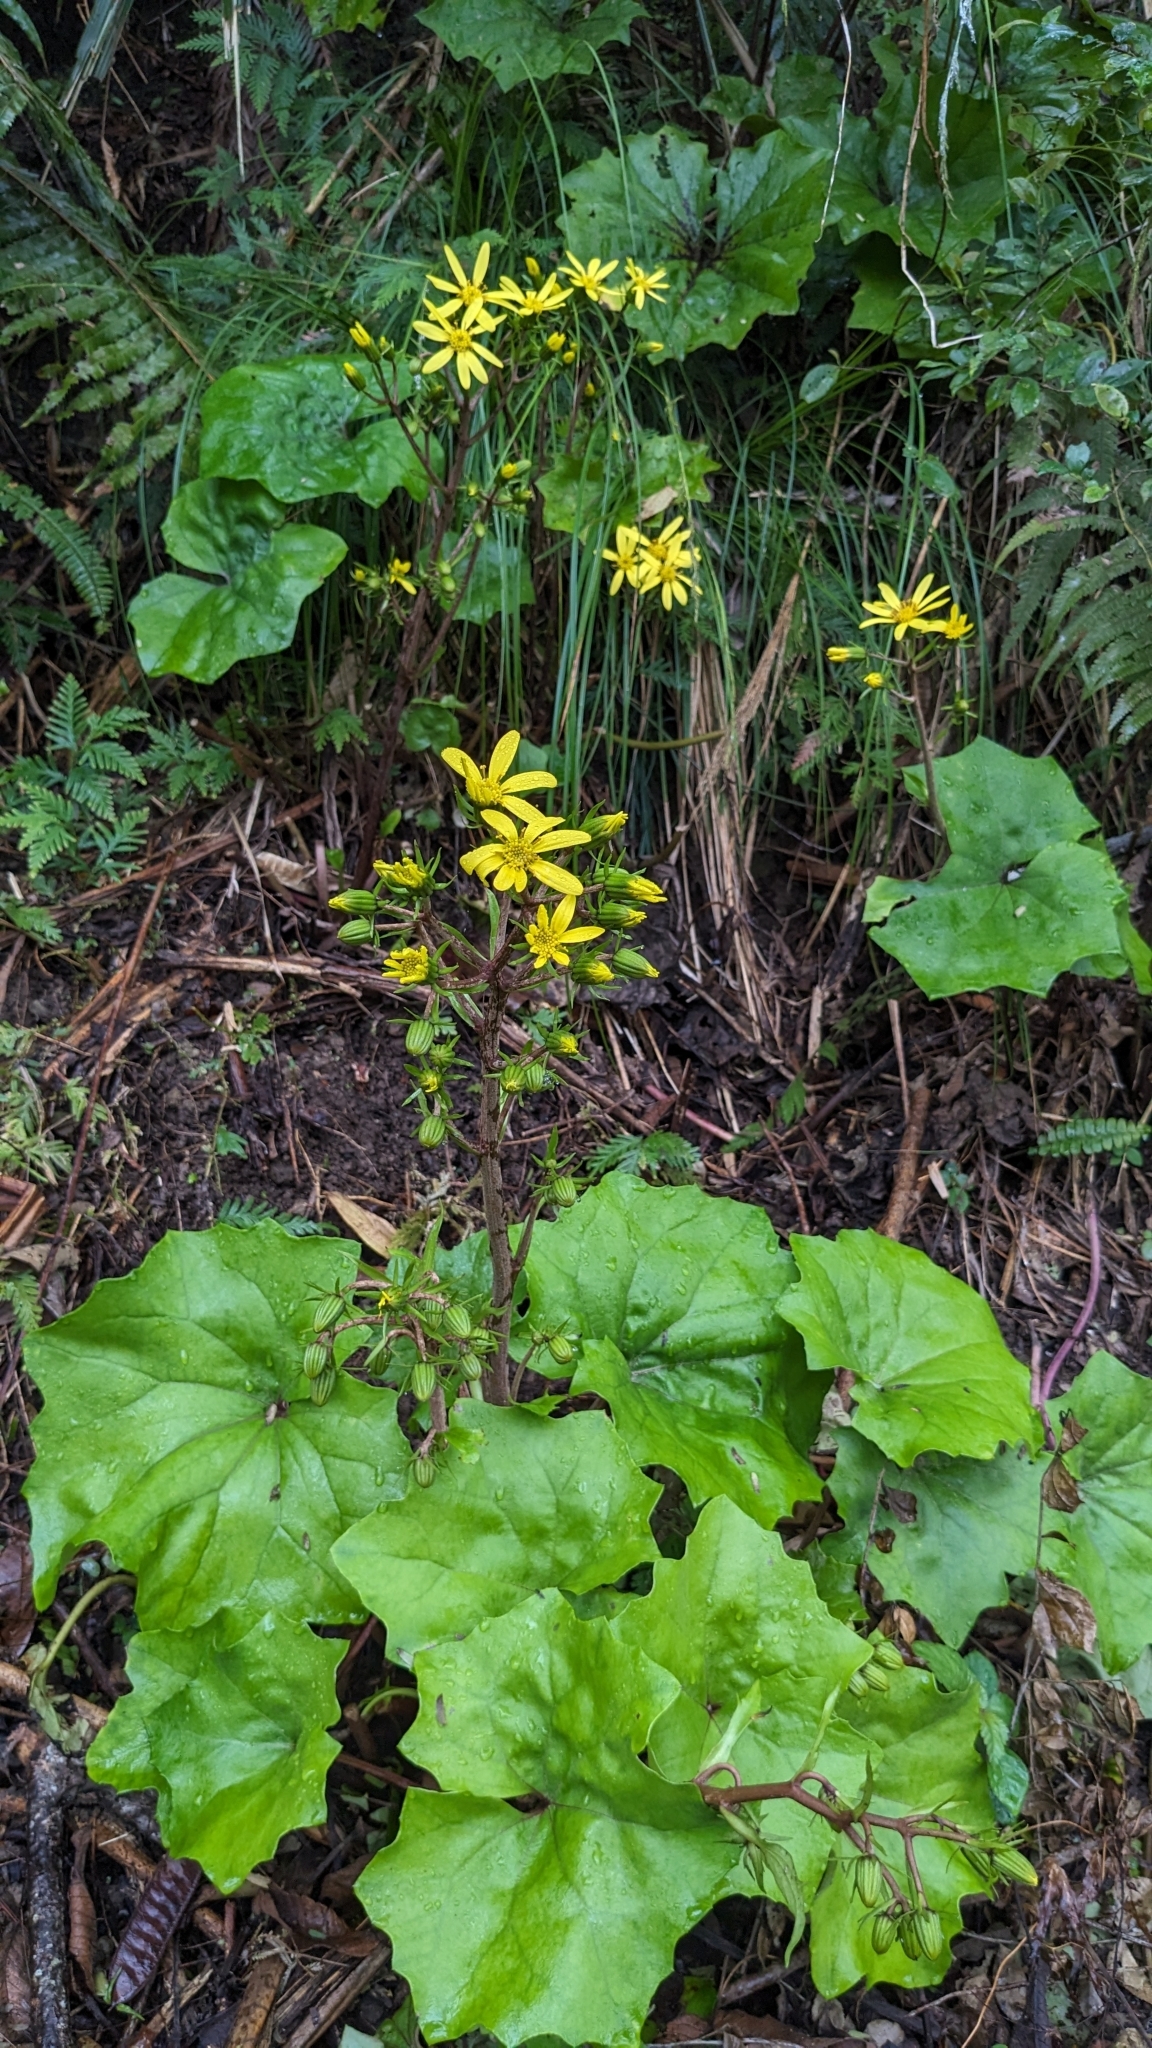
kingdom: Plantae
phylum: Tracheophyta
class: Magnoliopsida
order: Asterales
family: Asteraceae
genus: Farfugium
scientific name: Farfugium japonicum
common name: Leopardplant
